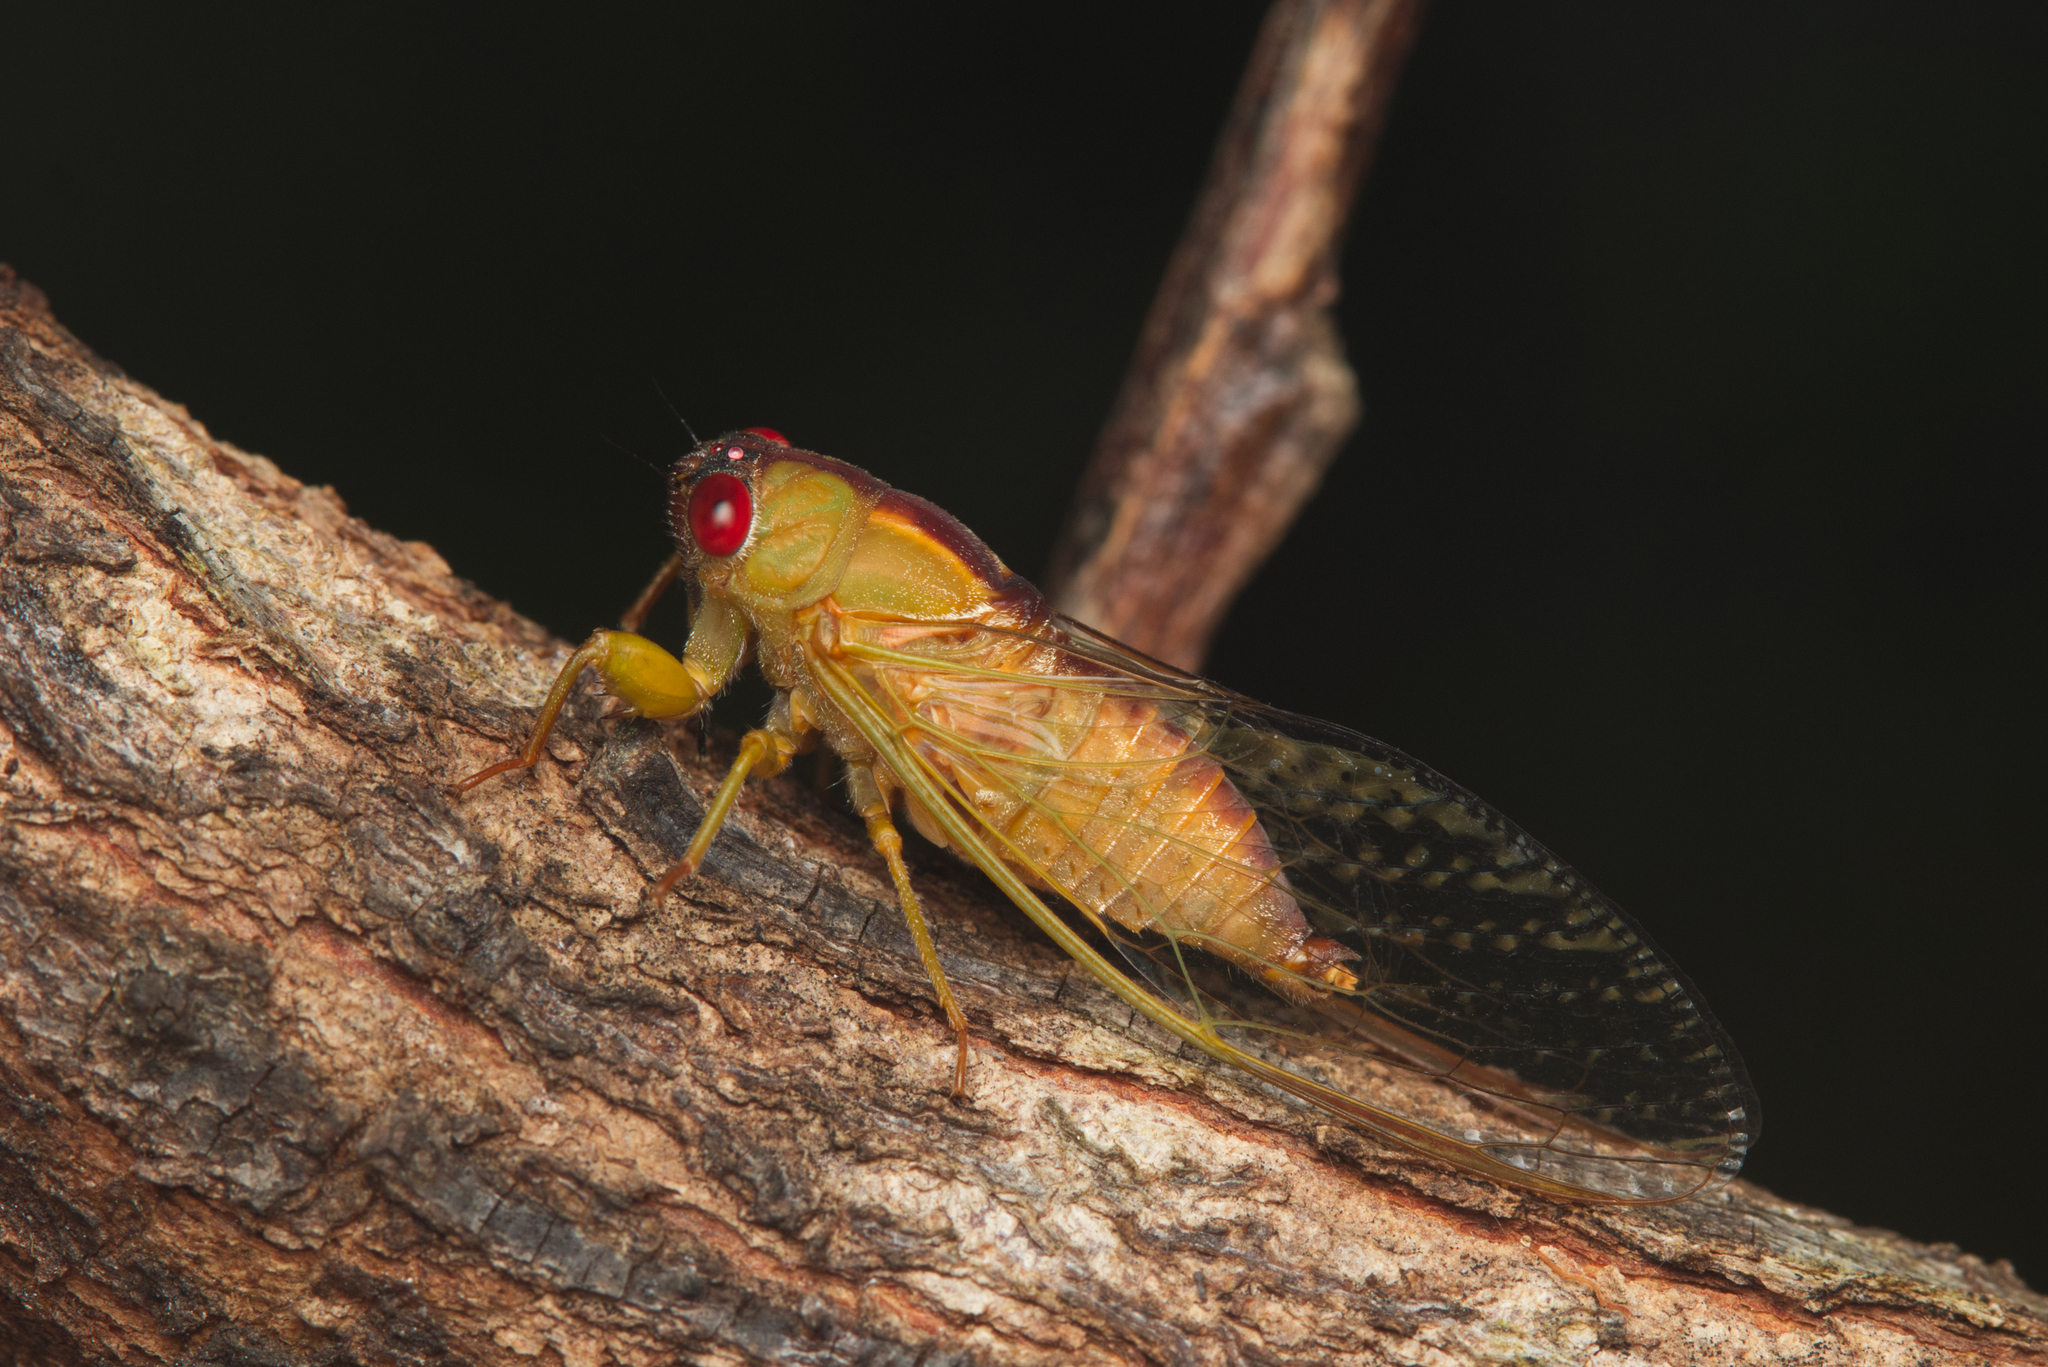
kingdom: Animalia
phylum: Arthropoda
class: Insecta
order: Hemiptera
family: Cicadidae
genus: Ewartia
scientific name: Ewartia oldfieldi
